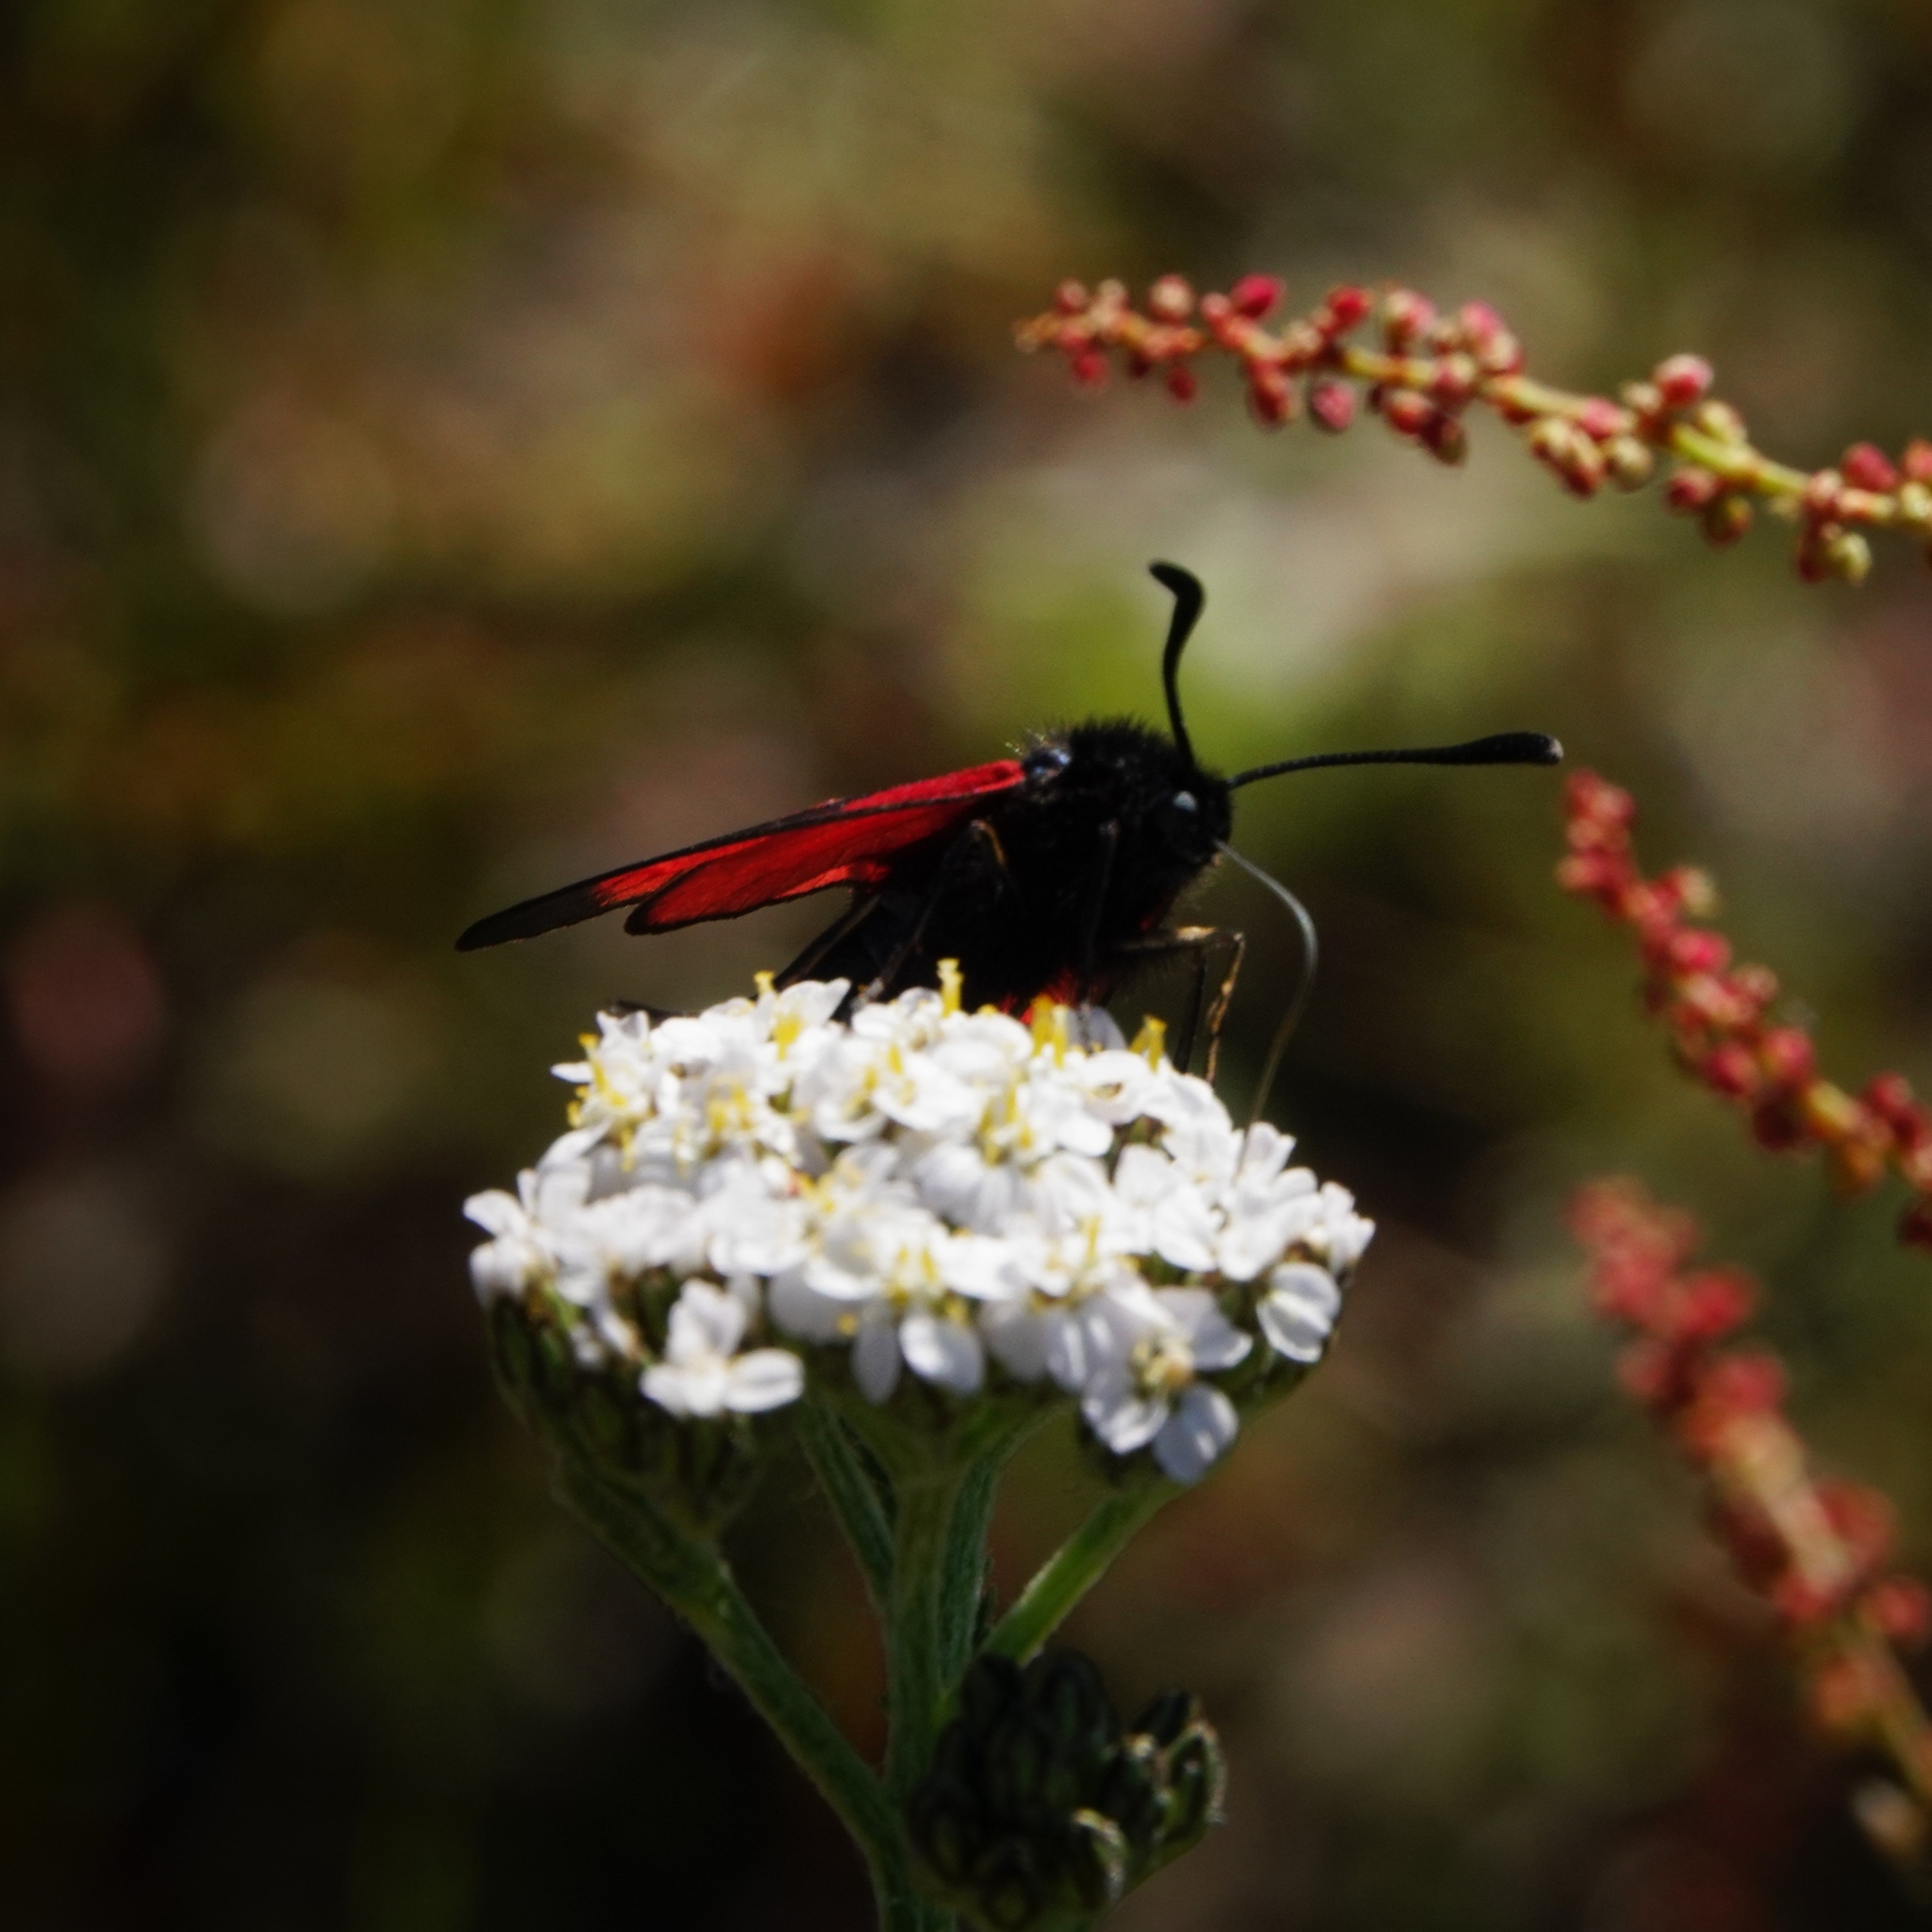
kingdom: Animalia
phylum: Arthropoda
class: Insecta
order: Lepidoptera
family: Zygaenidae
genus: Zygaena
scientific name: Zygaena minos
